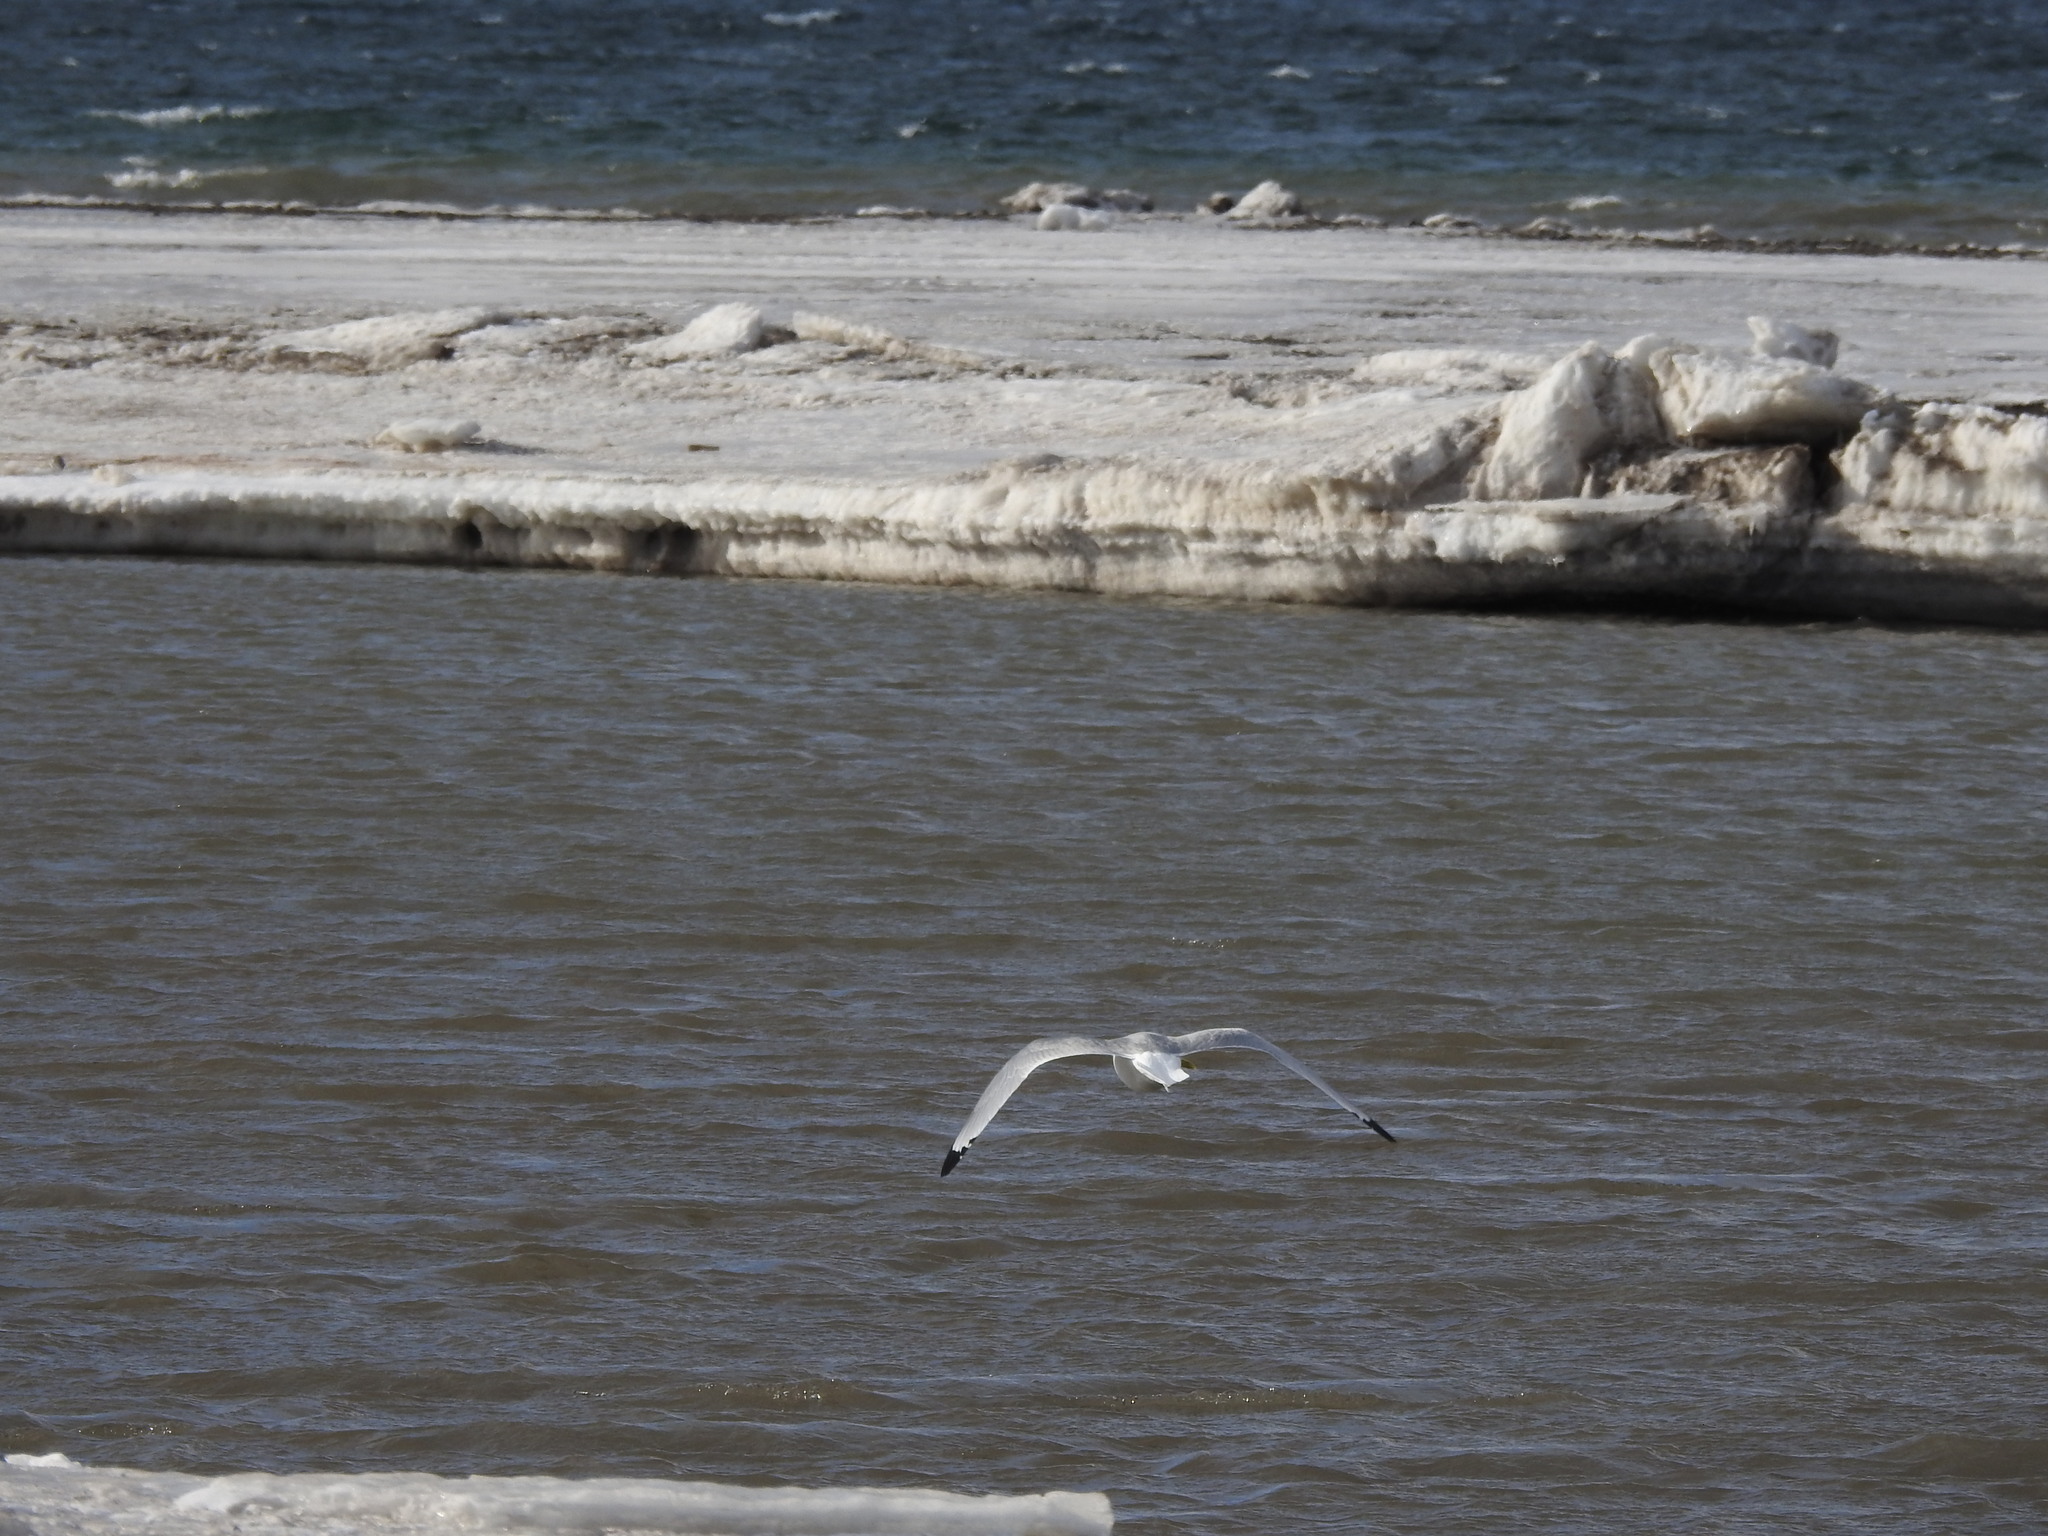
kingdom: Animalia
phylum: Chordata
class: Aves
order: Charadriiformes
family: Laridae
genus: Rissa
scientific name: Rissa tridactyla
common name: Black-legged kittiwake
